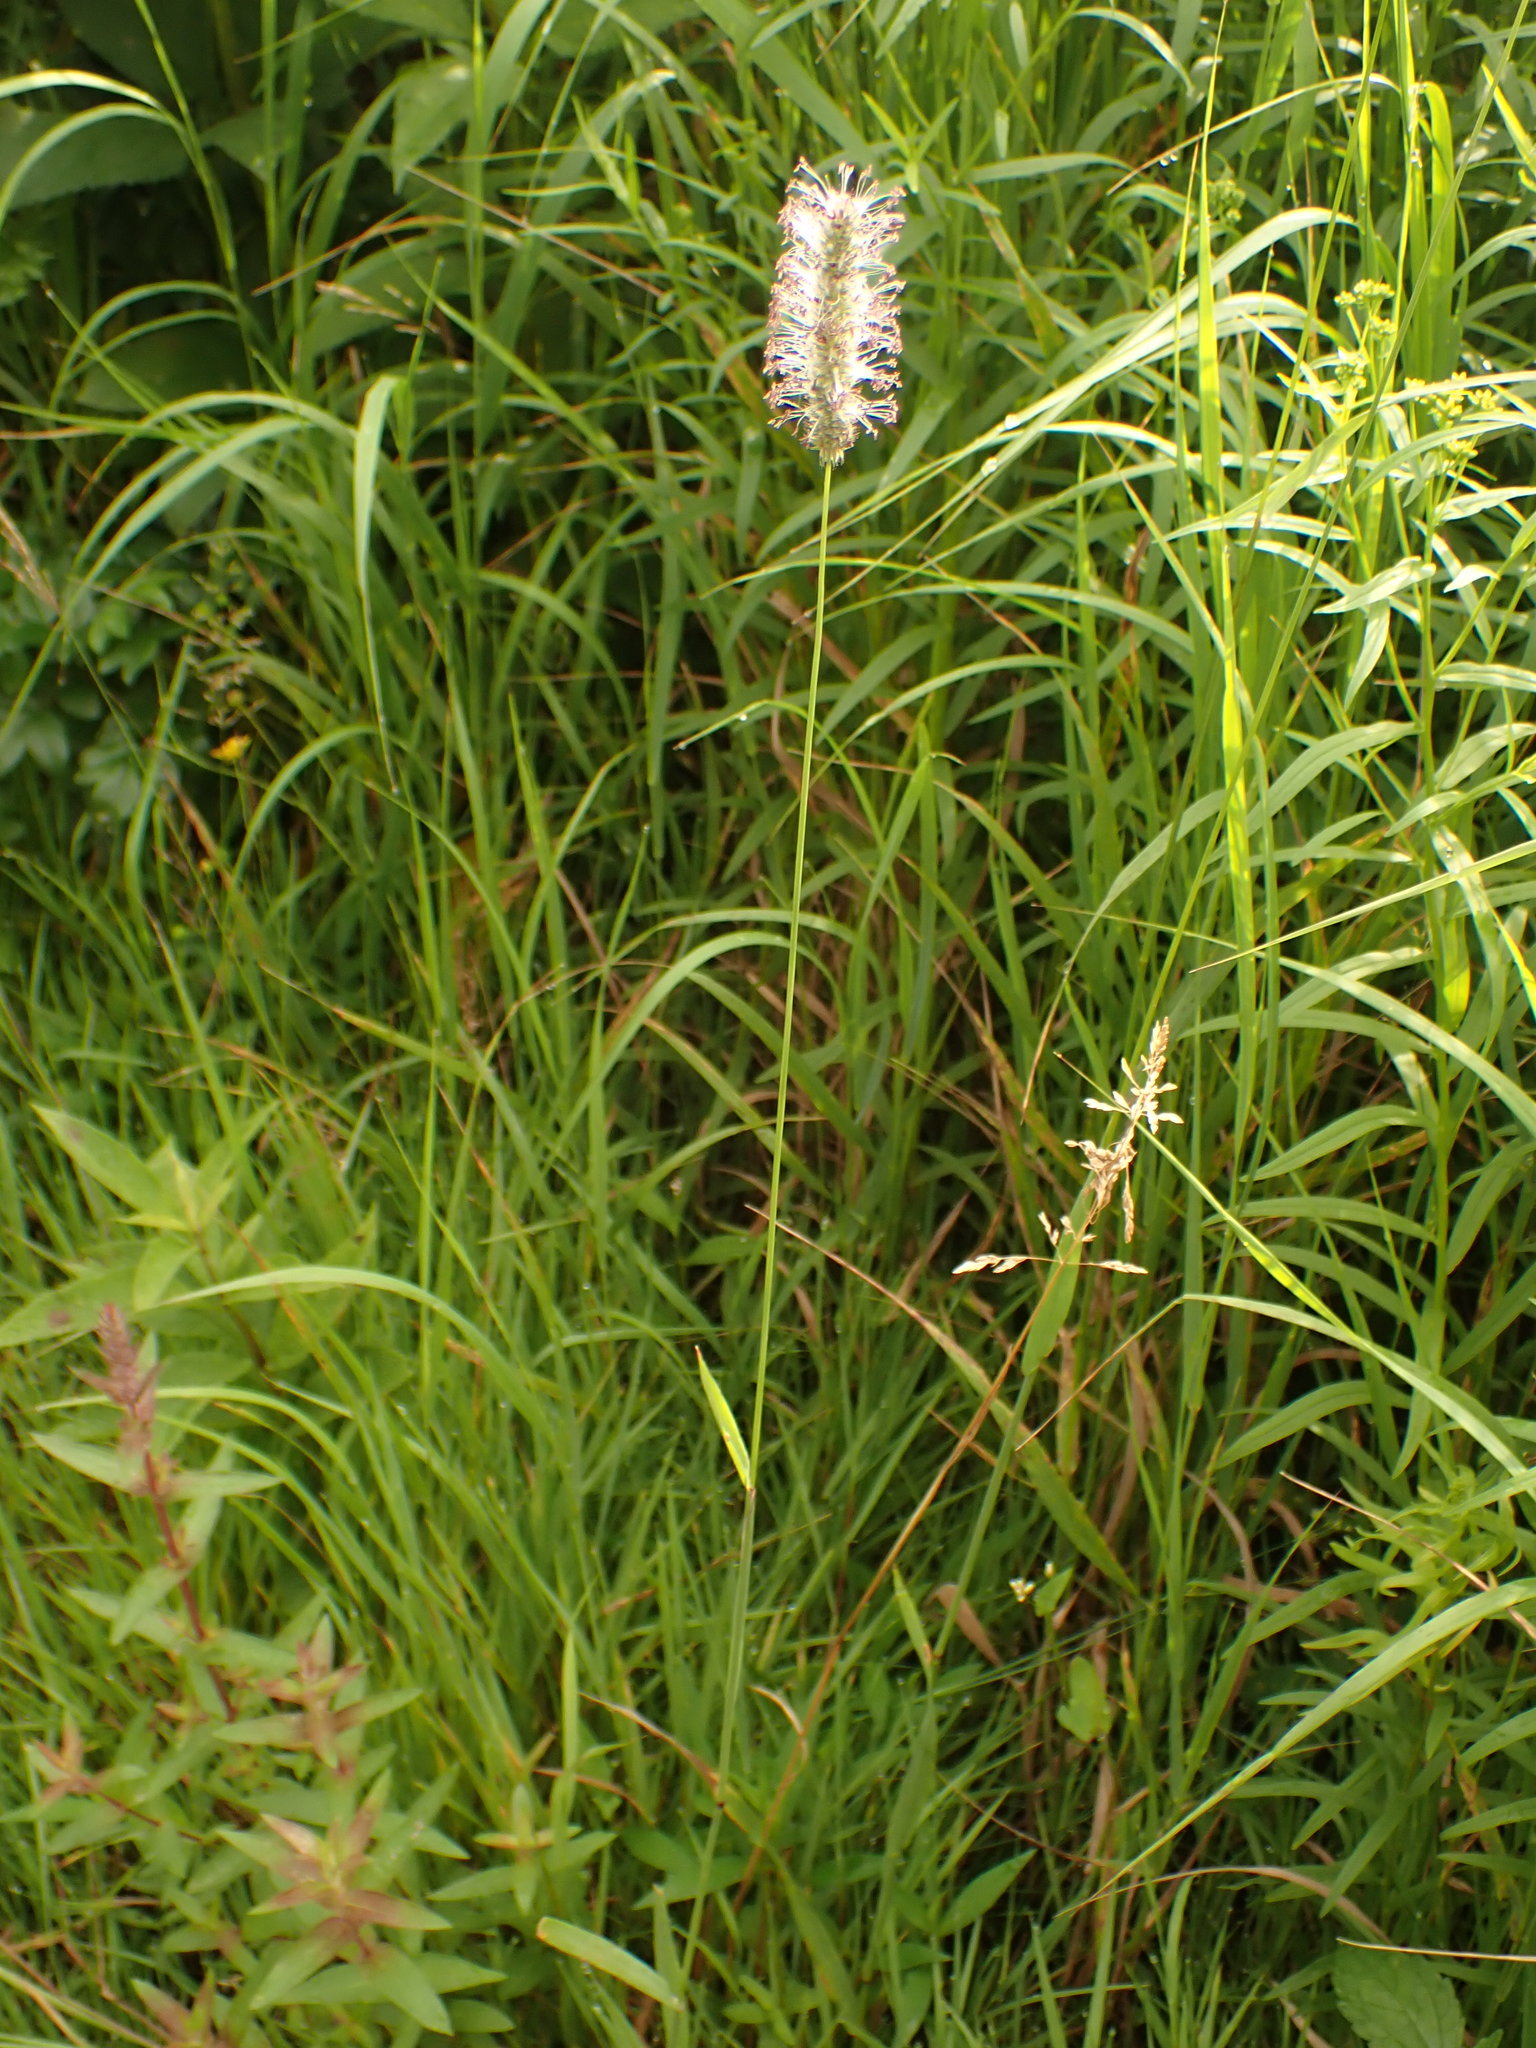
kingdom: Plantae
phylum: Tracheophyta
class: Liliopsida
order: Poales
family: Poaceae
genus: Phleum
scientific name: Phleum pratense
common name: Timothy grass
